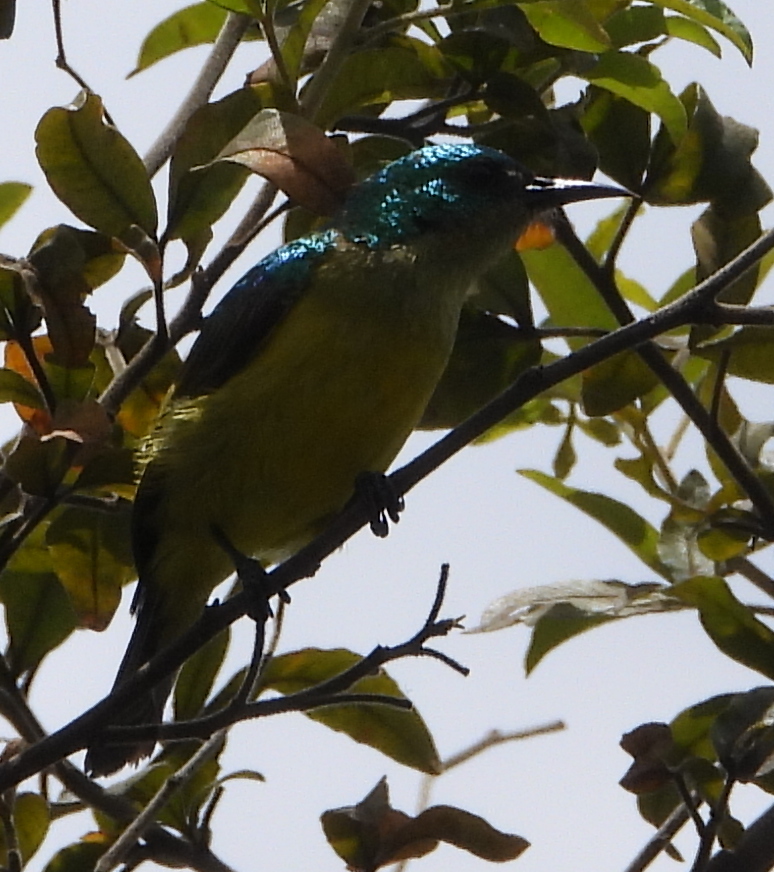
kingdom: Animalia
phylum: Chordata
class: Aves
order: Passeriformes
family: Nectariniidae
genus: Hedydipna
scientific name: Hedydipna collaris
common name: Collared sunbird
